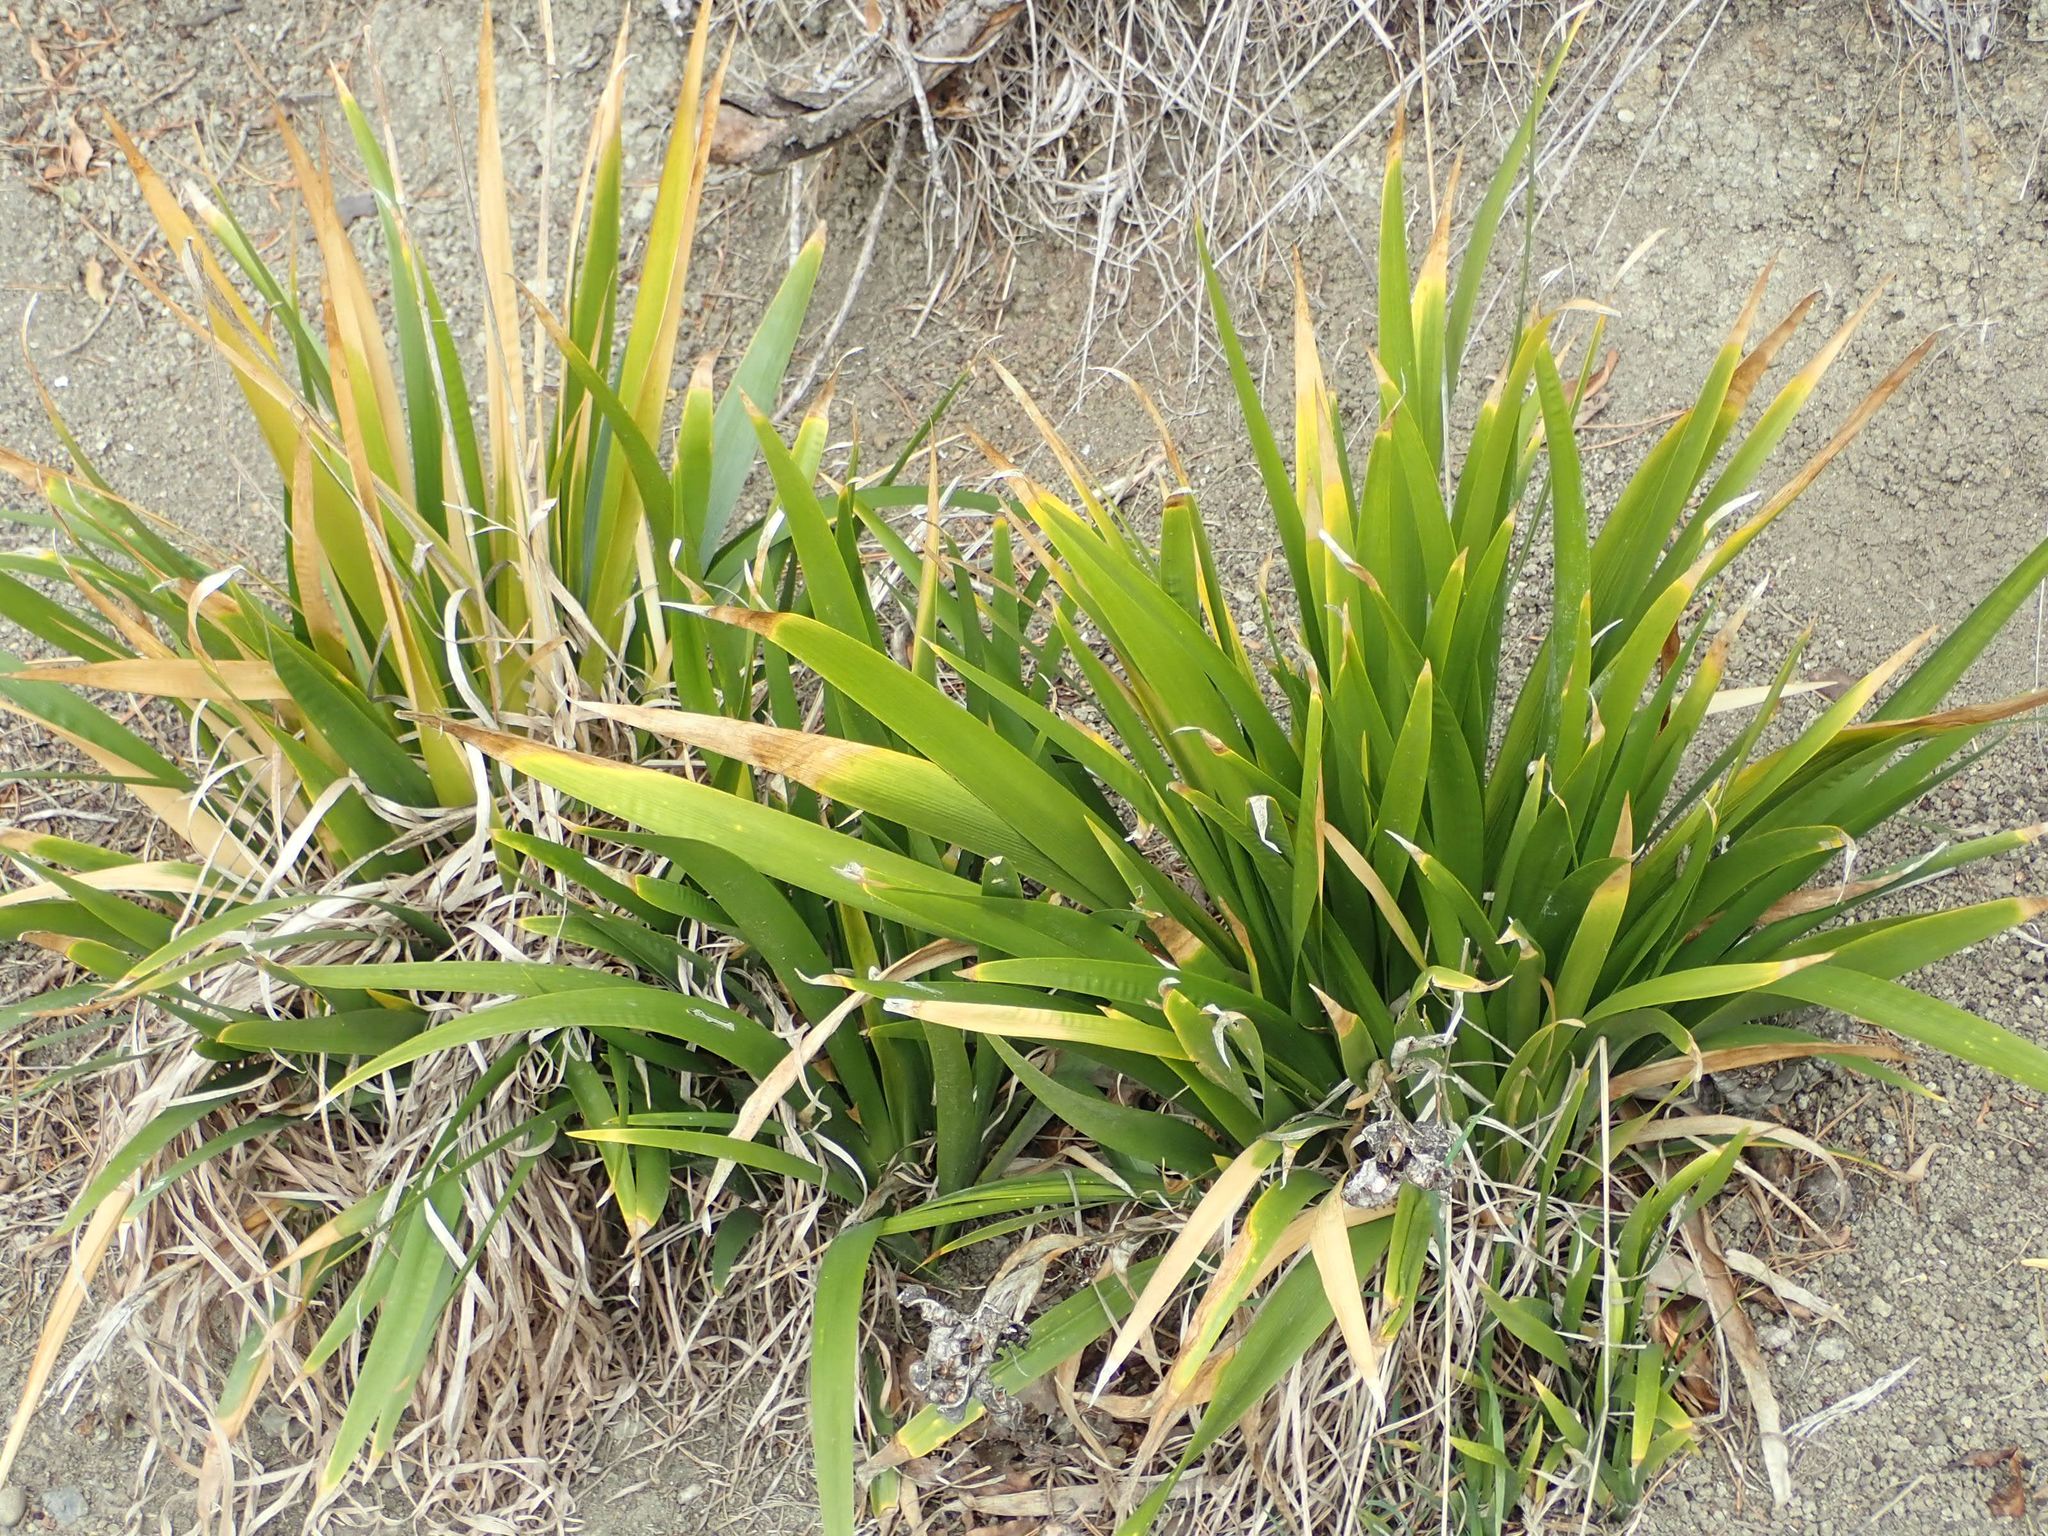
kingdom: Plantae
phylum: Tracheophyta
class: Liliopsida
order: Asparagales
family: Iridaceae
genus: Iris
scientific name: Iris foetidissima
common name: Stinking iris
